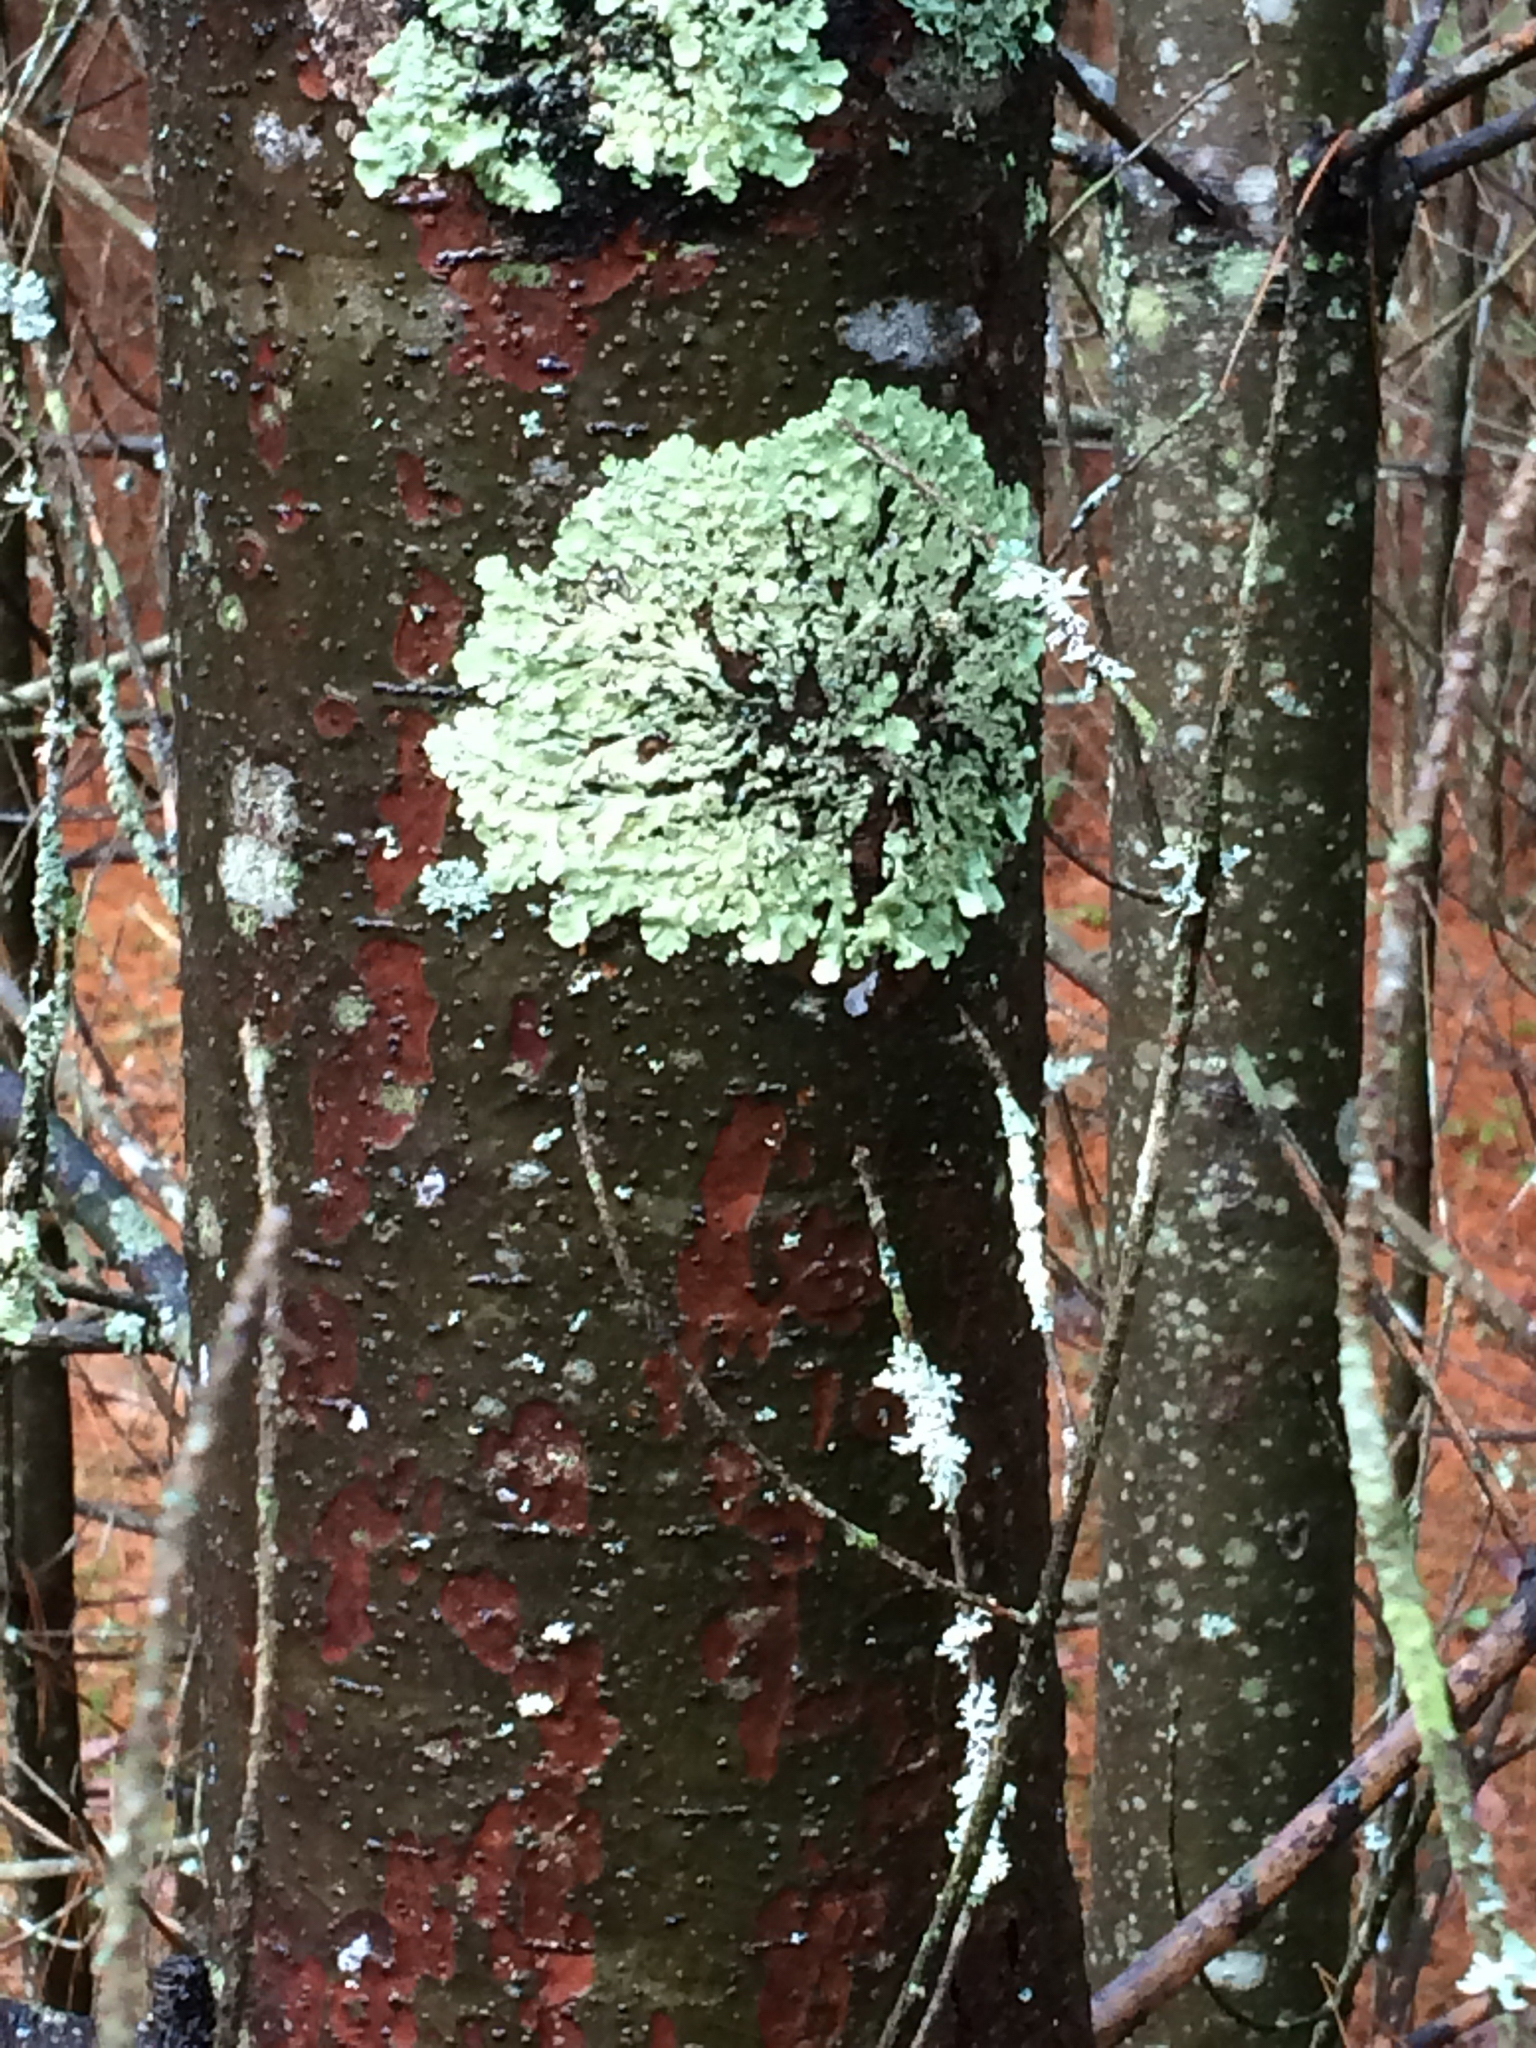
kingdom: Fungi
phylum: Ascomycota
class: Lecanoromycetes
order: Lecanorales
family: Parmeliaceae
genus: Flavoparmelia
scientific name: Flavoparmelia caperata
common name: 40-mile per hour lichen
